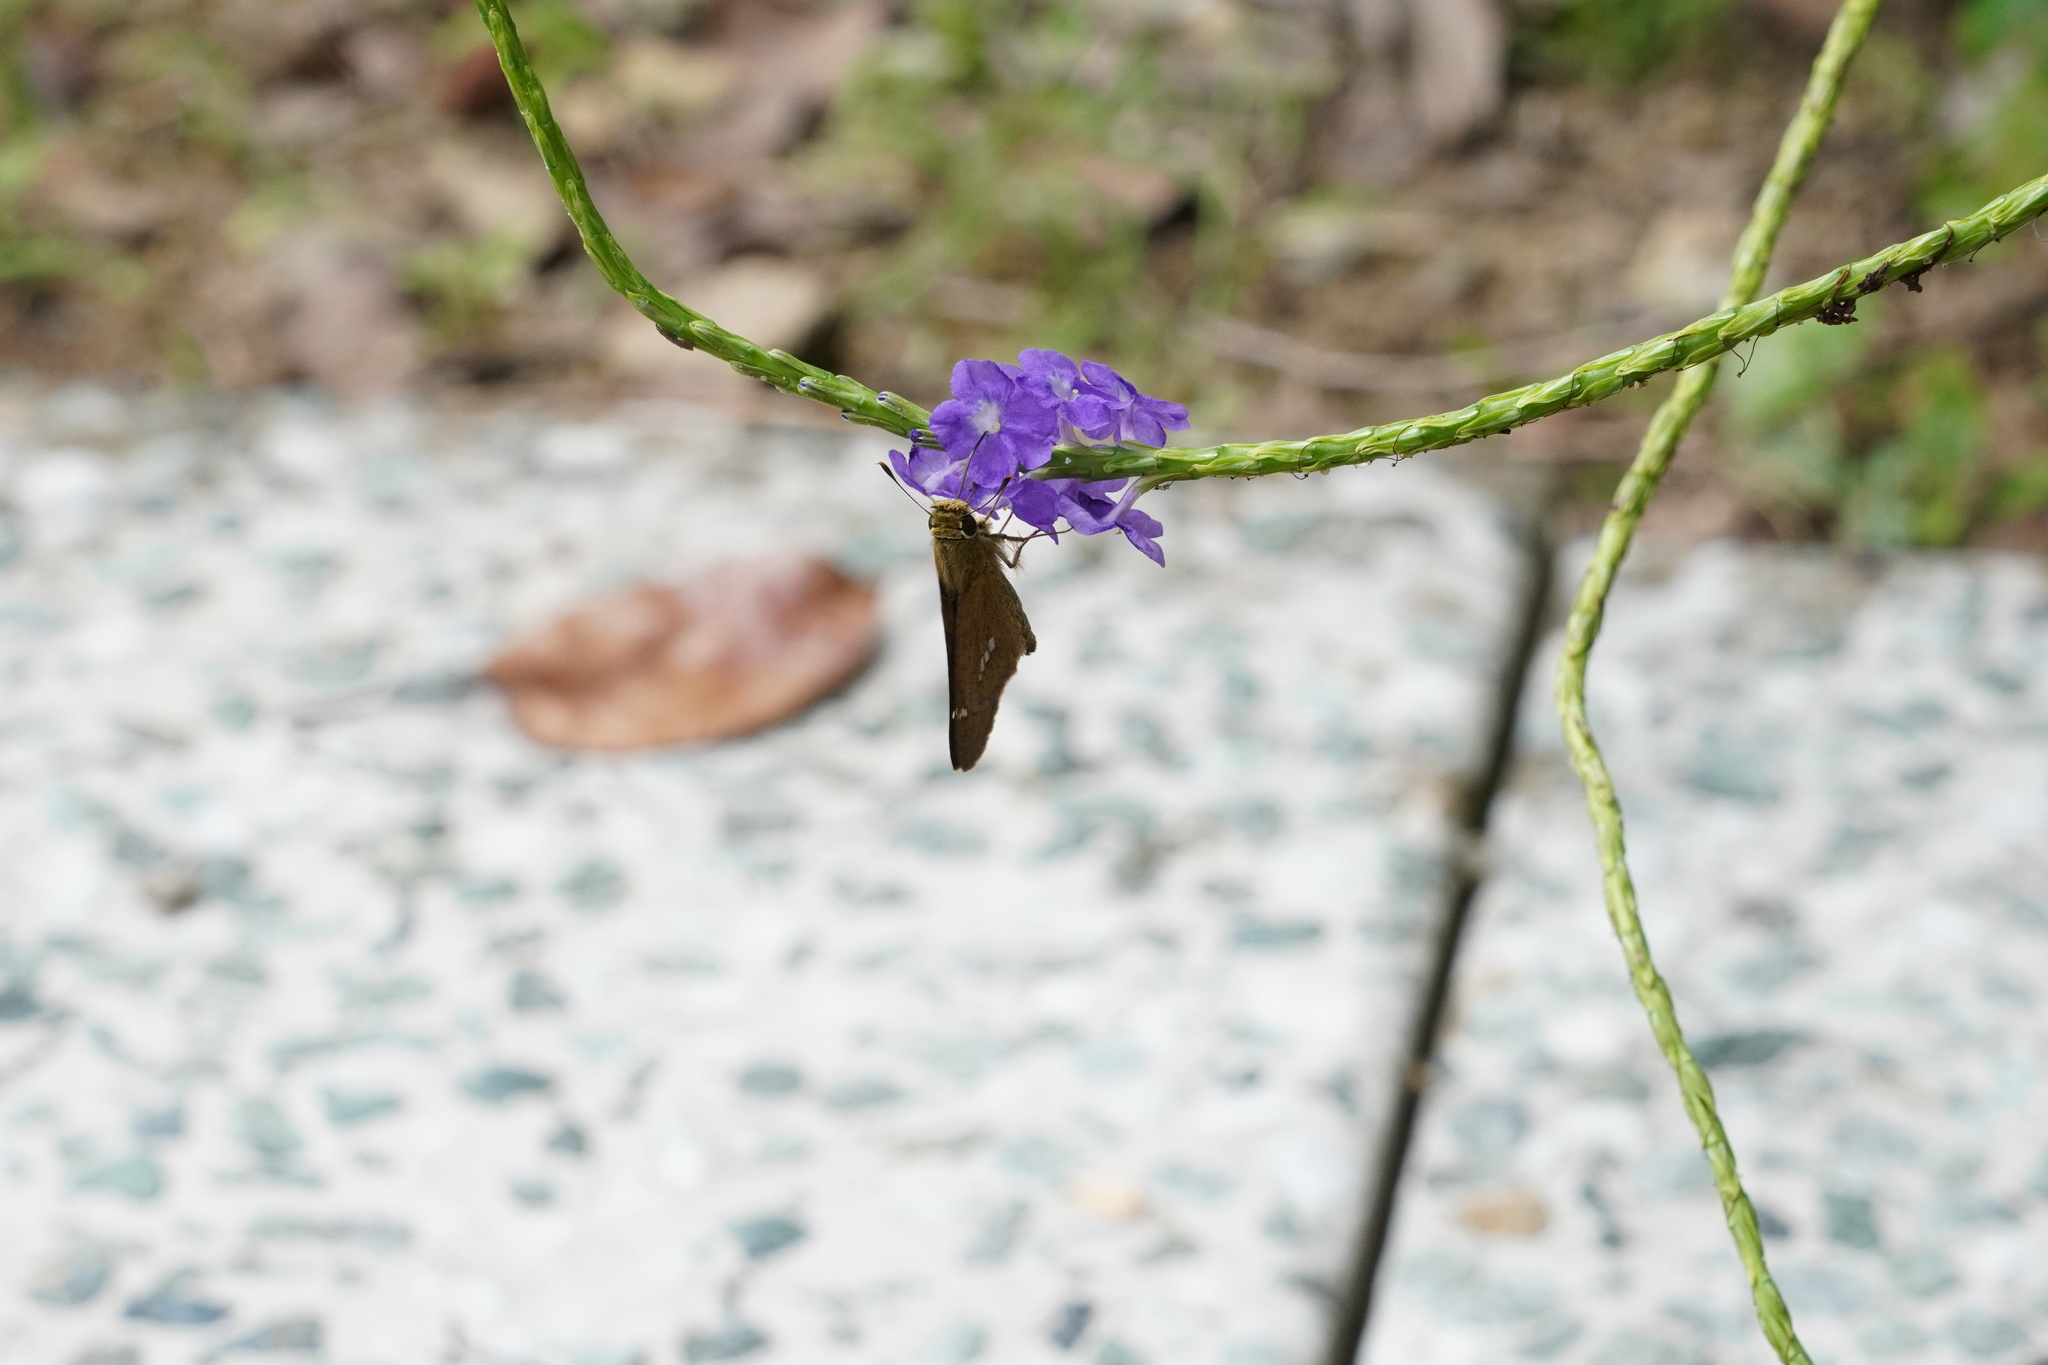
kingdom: Animalia
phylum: Arthropoda
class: Insecta
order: Lepidoptera
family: Hesperiidae
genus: Parnara
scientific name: Parnara guttatus
